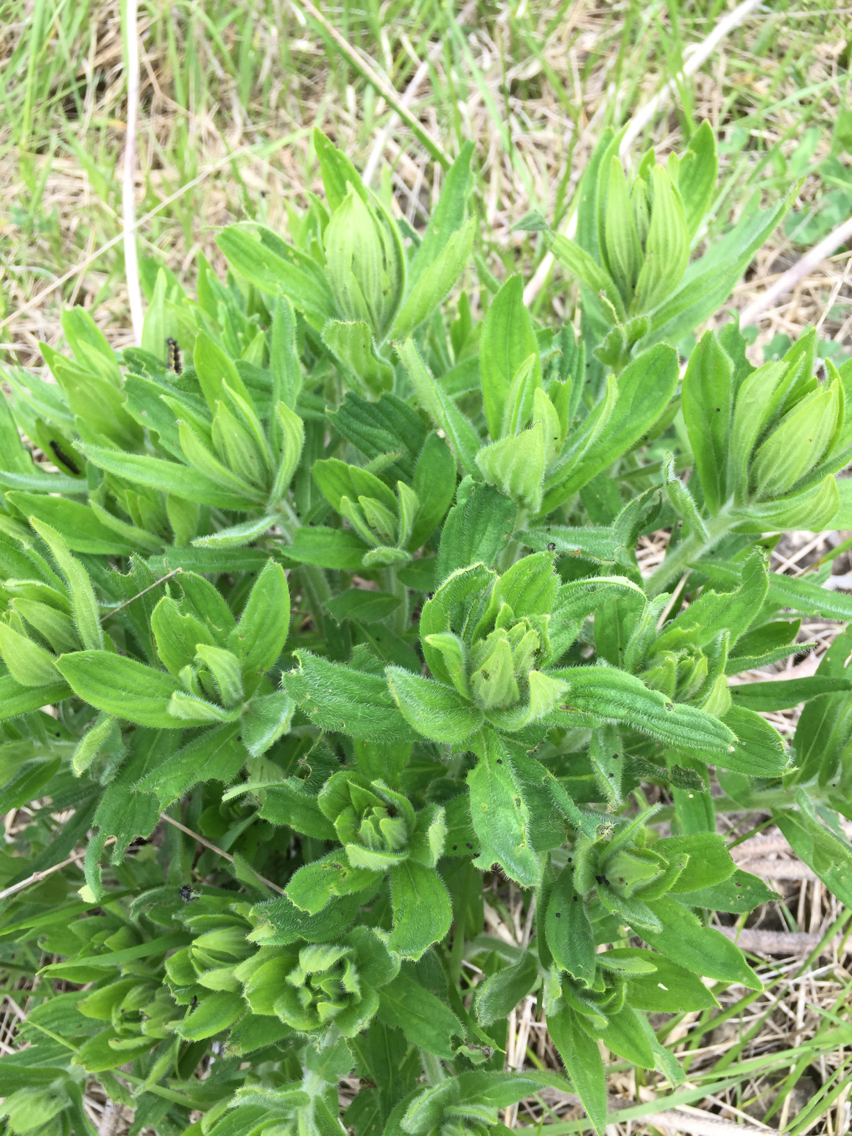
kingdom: Plantae
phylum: Tracheophyta
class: Magnoliopsida
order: Boraginales
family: Boraginaceae
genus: Lithospermum
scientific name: Lithospermum parviflorum
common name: Hairy false gromwell
